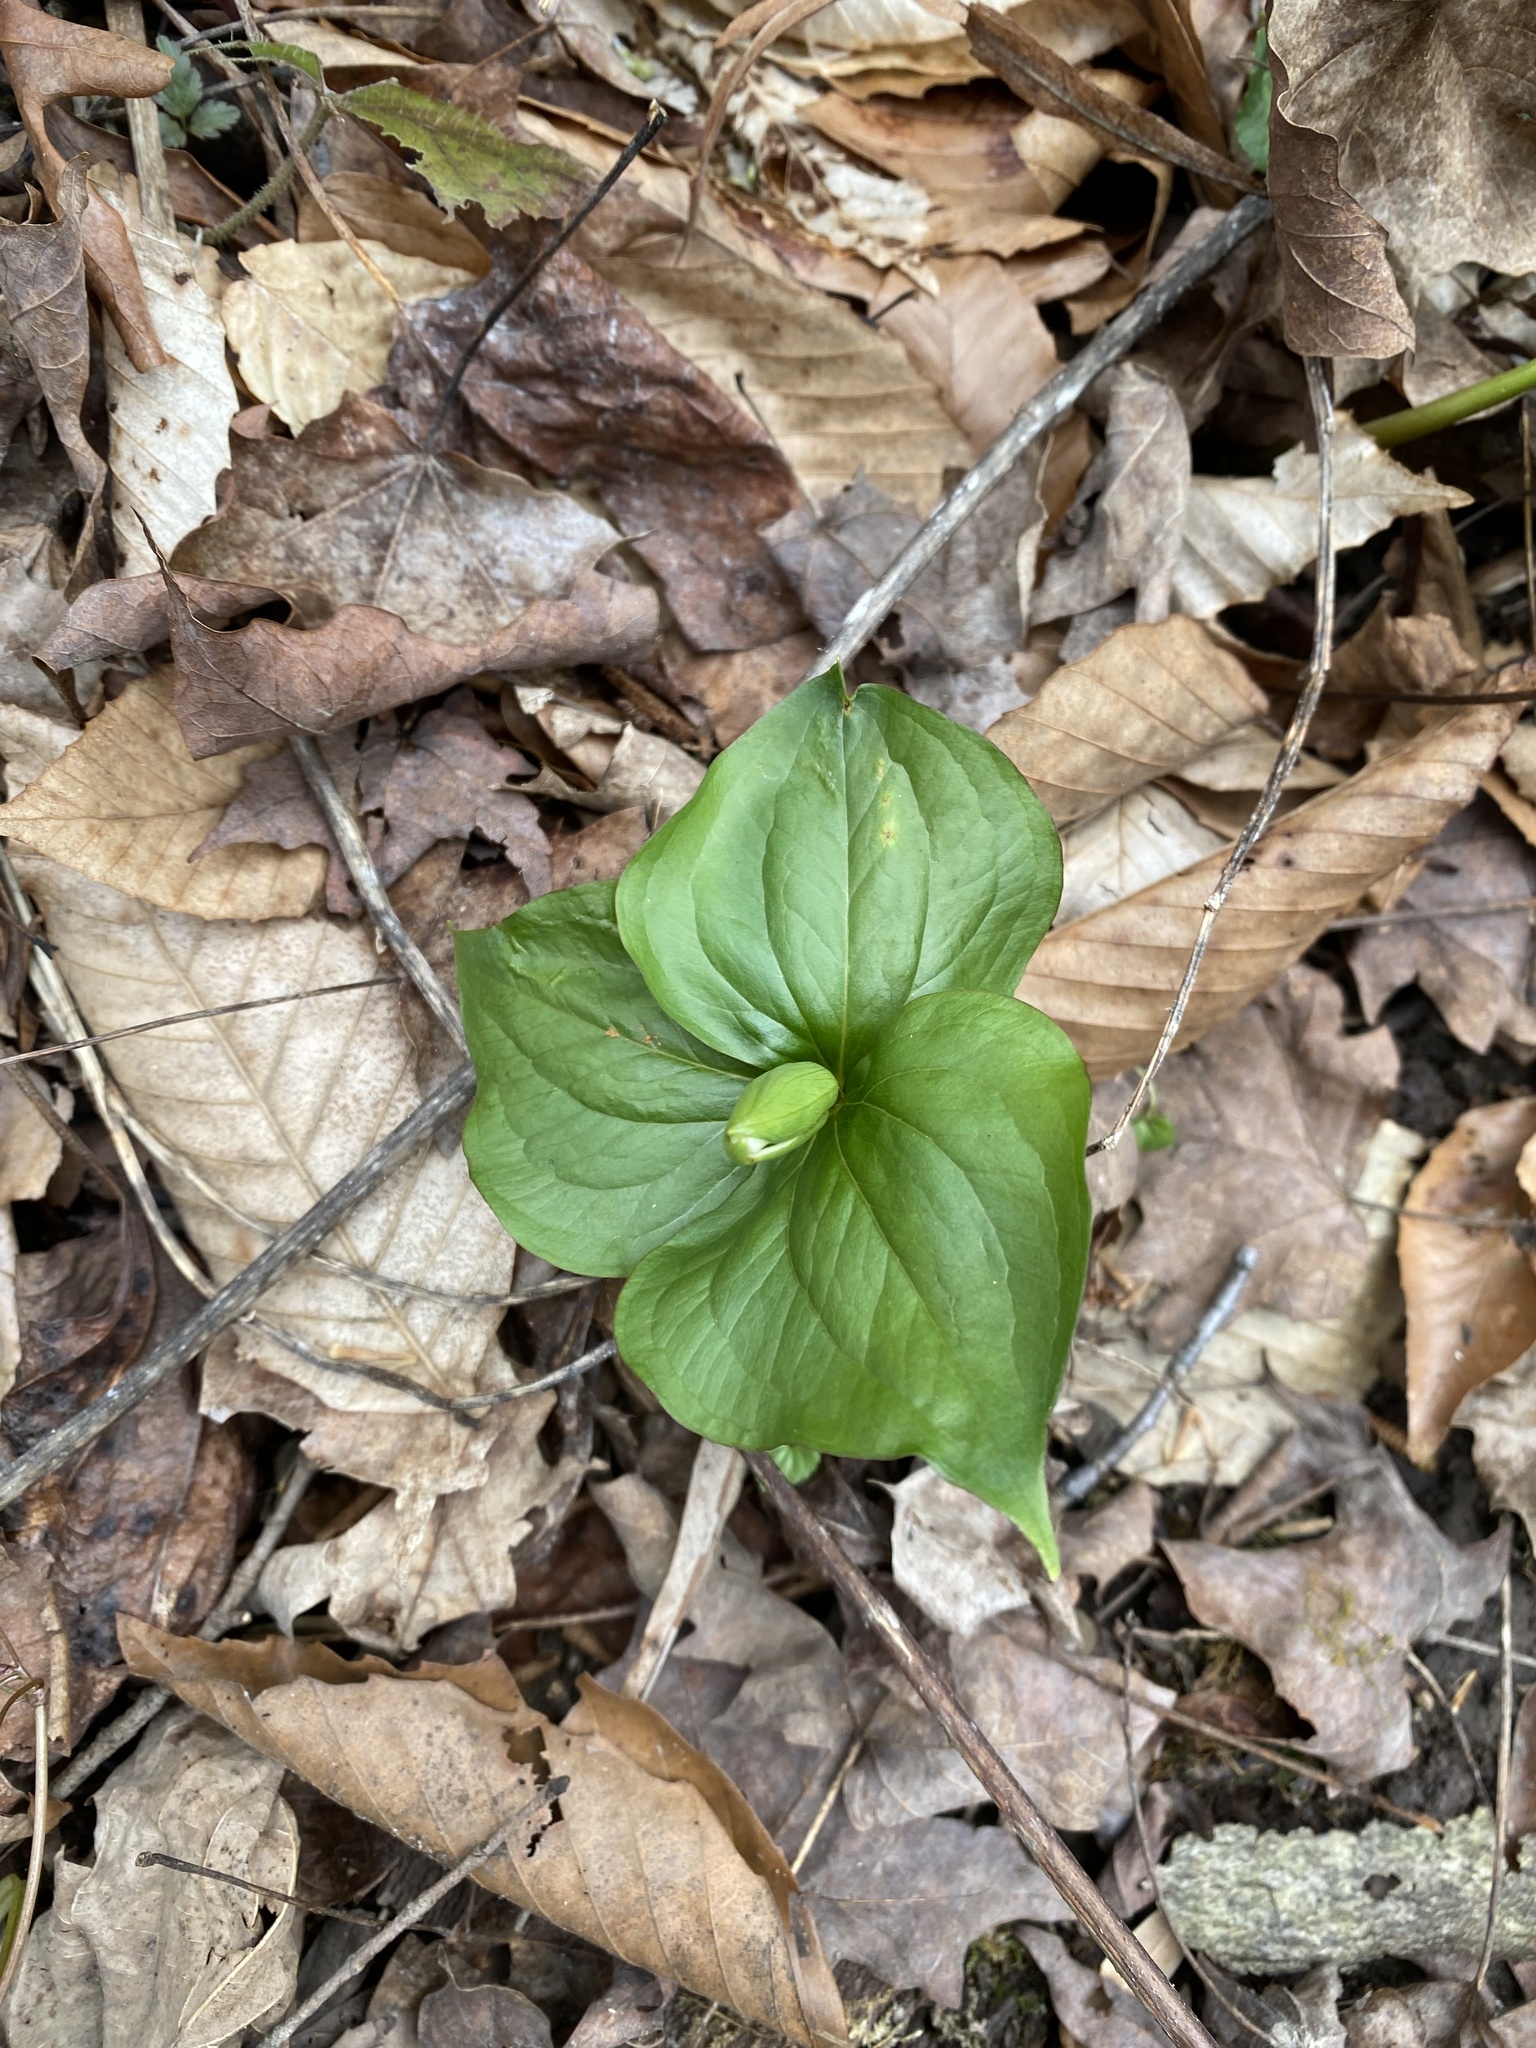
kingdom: Plantae
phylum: Tracheophyta
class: Liliopsida
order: Liliales
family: Melanthiaceae
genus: Trillium
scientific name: Trillium grandiflorum
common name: Great white trillium
